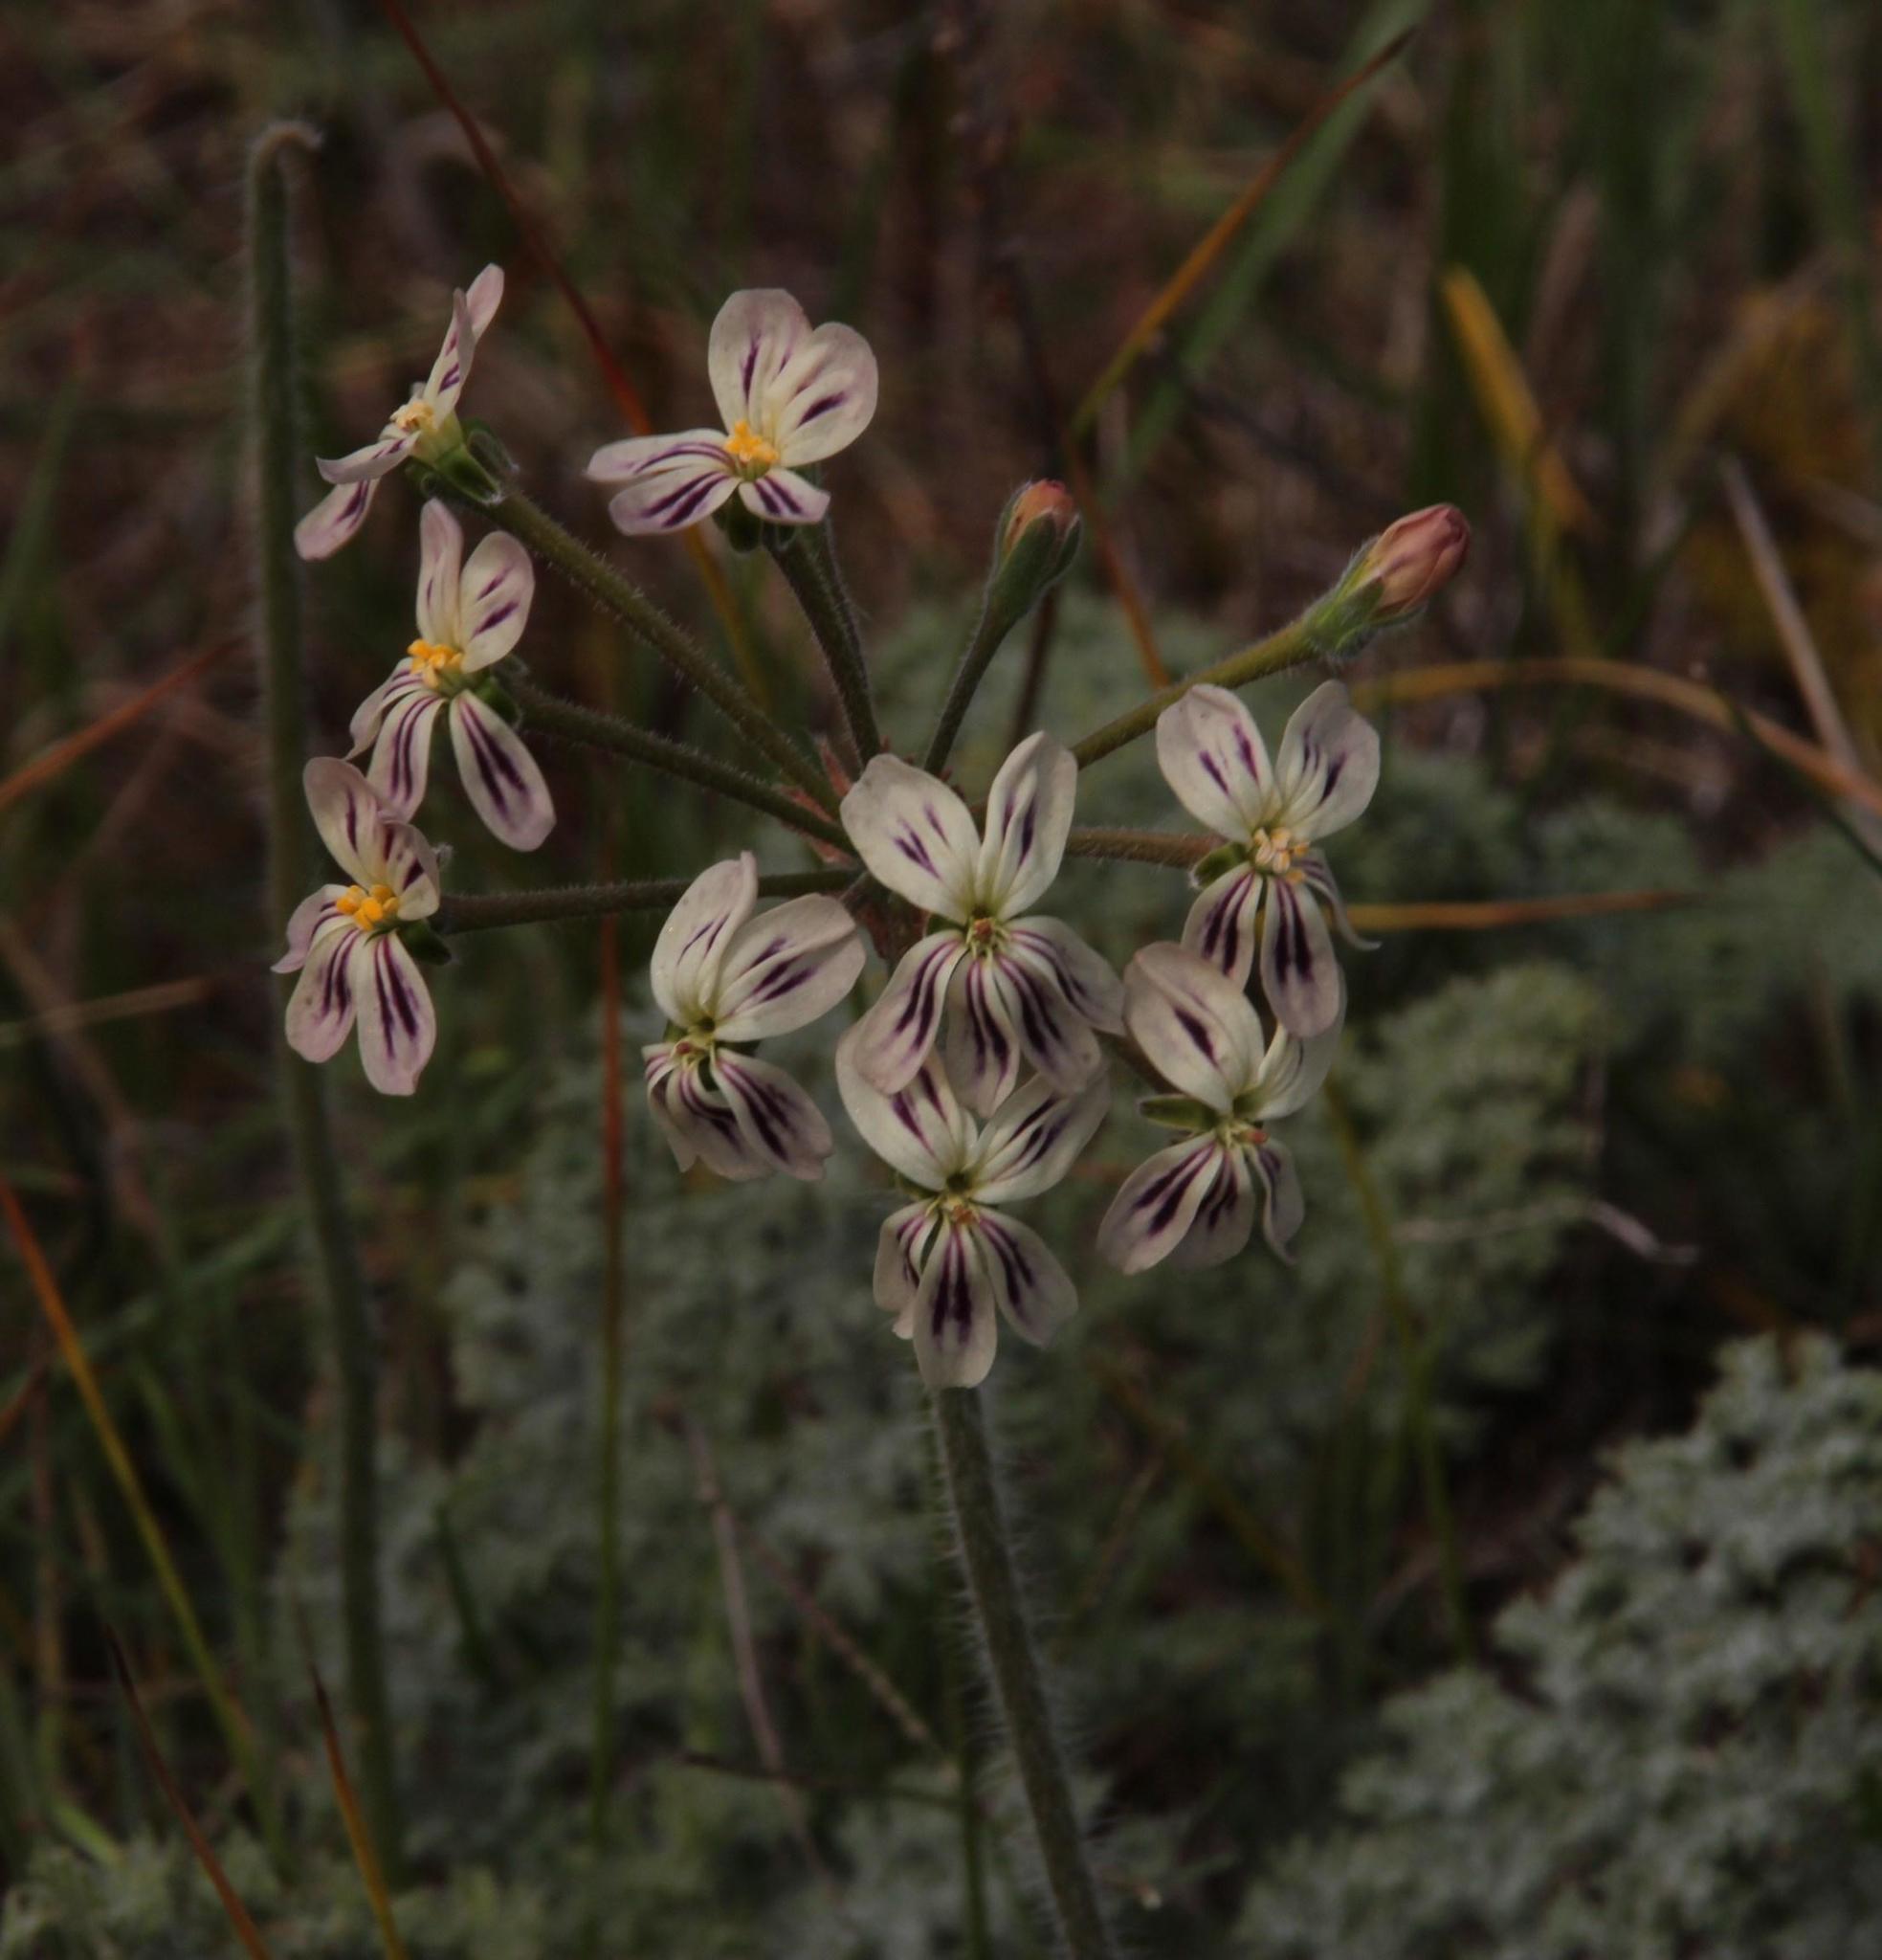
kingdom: Plantae
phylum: Tracheophyta
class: Magnoliopsida
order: Geraniales
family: Geraniaceae
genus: Pelargonium
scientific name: Pelargonium triste
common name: Night-scent pelargonium
